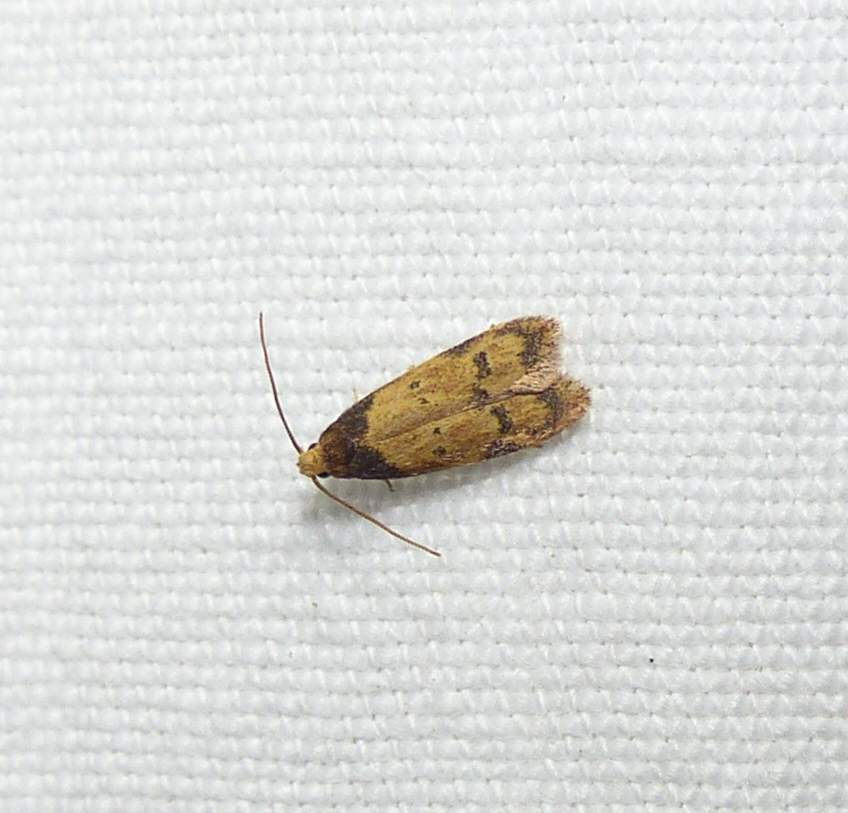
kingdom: Animalia
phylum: Arthropoda
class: Insecta
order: Lepidoptera
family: Autostichidae
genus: Gerdana
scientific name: Gerdana caritella
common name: Gerdana moth
